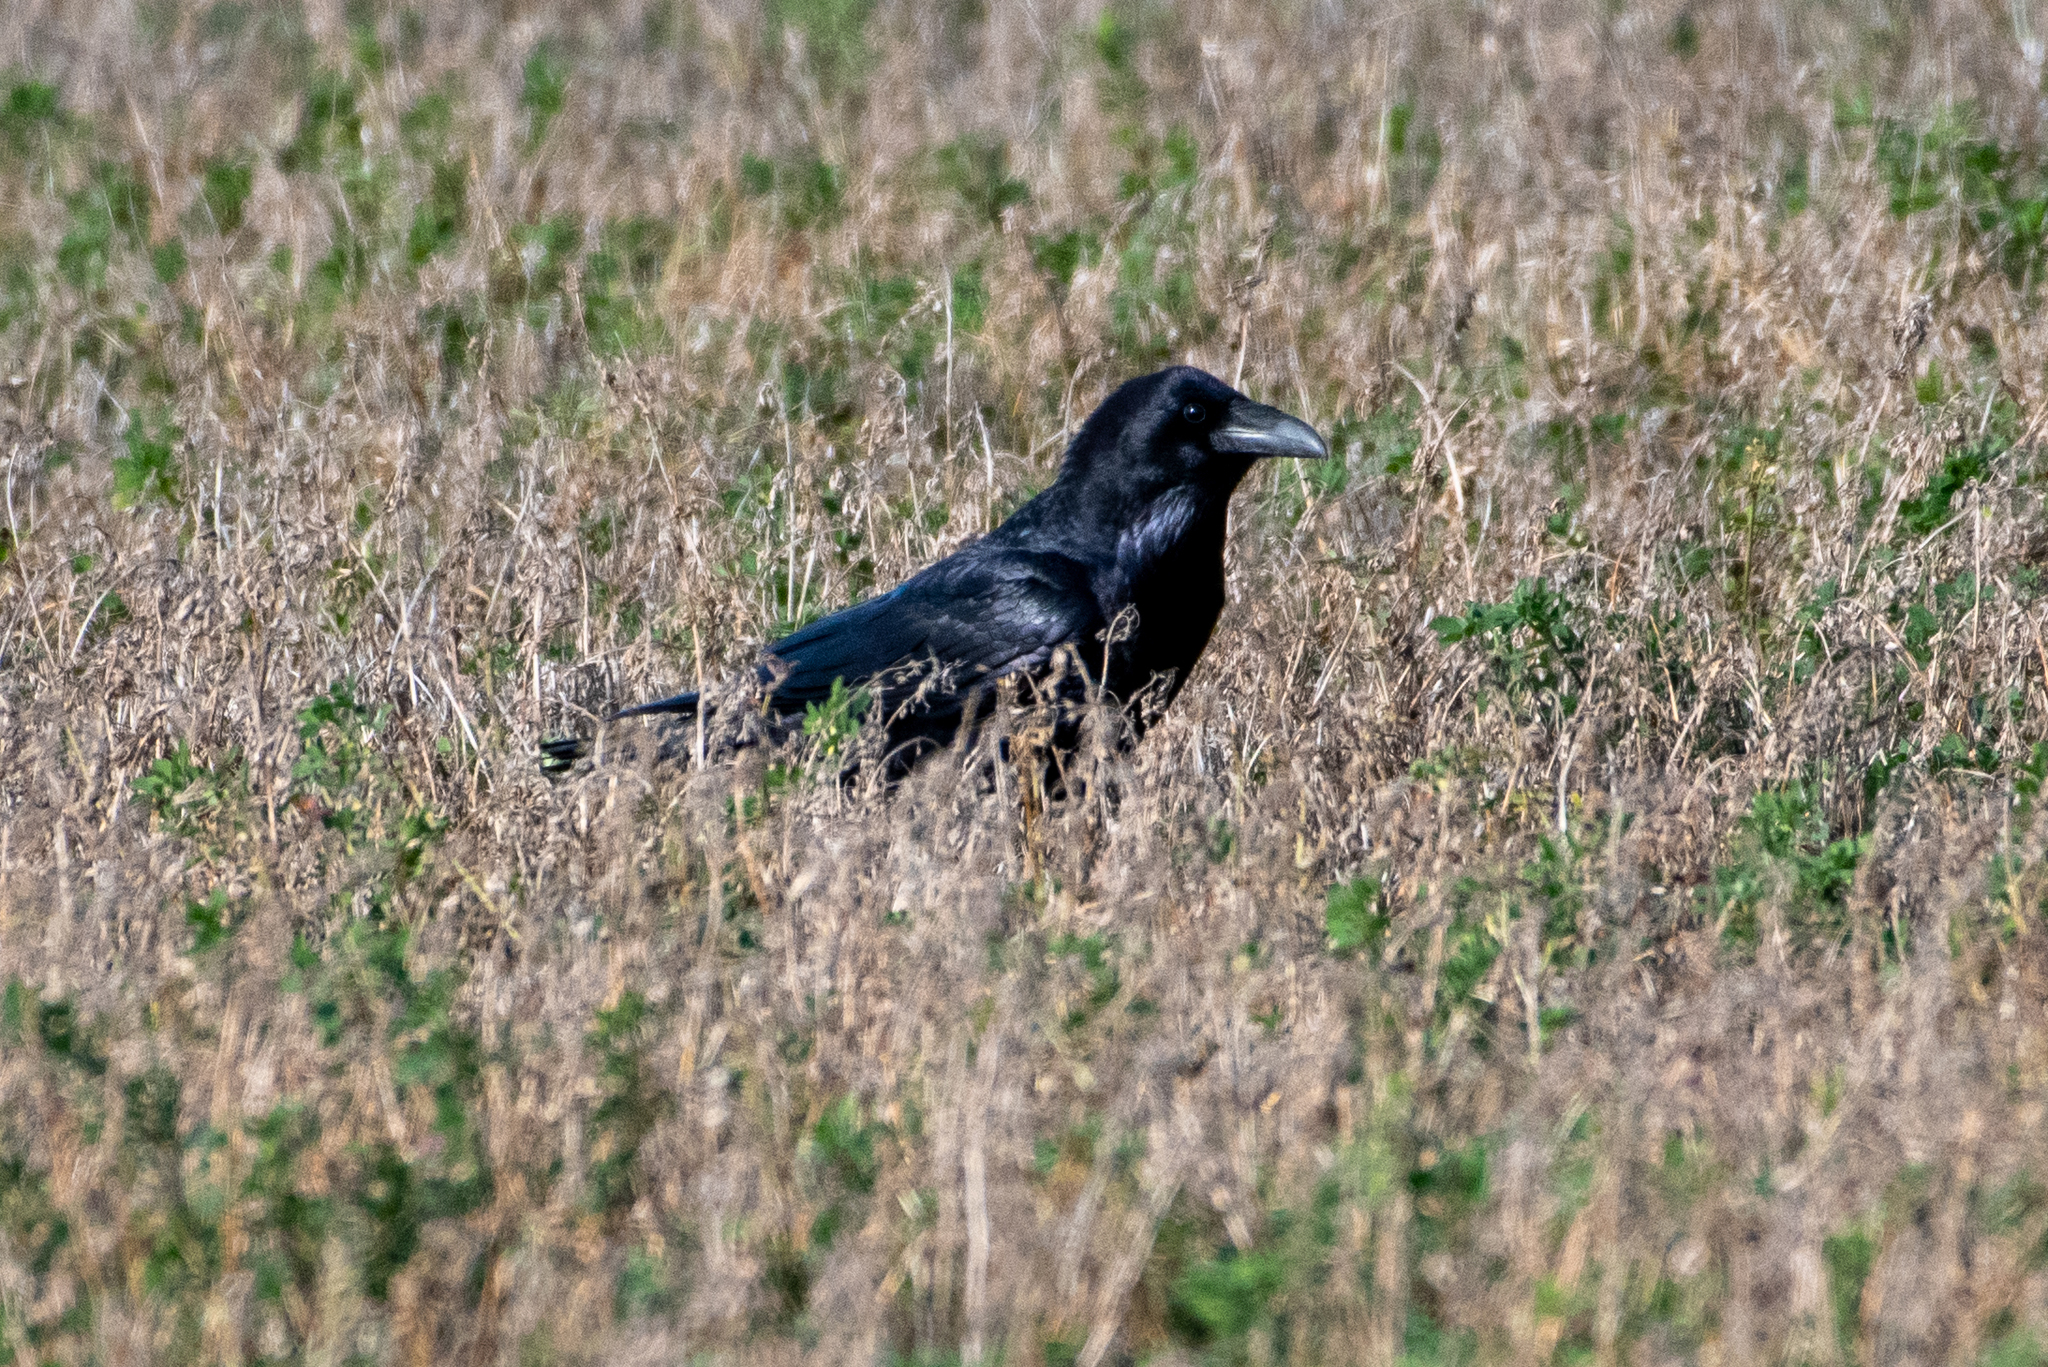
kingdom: Animalia
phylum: Chordata
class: Aves
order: Passeriformes
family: Corvidae
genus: Corvus
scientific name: Corvus corax
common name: Common raven
